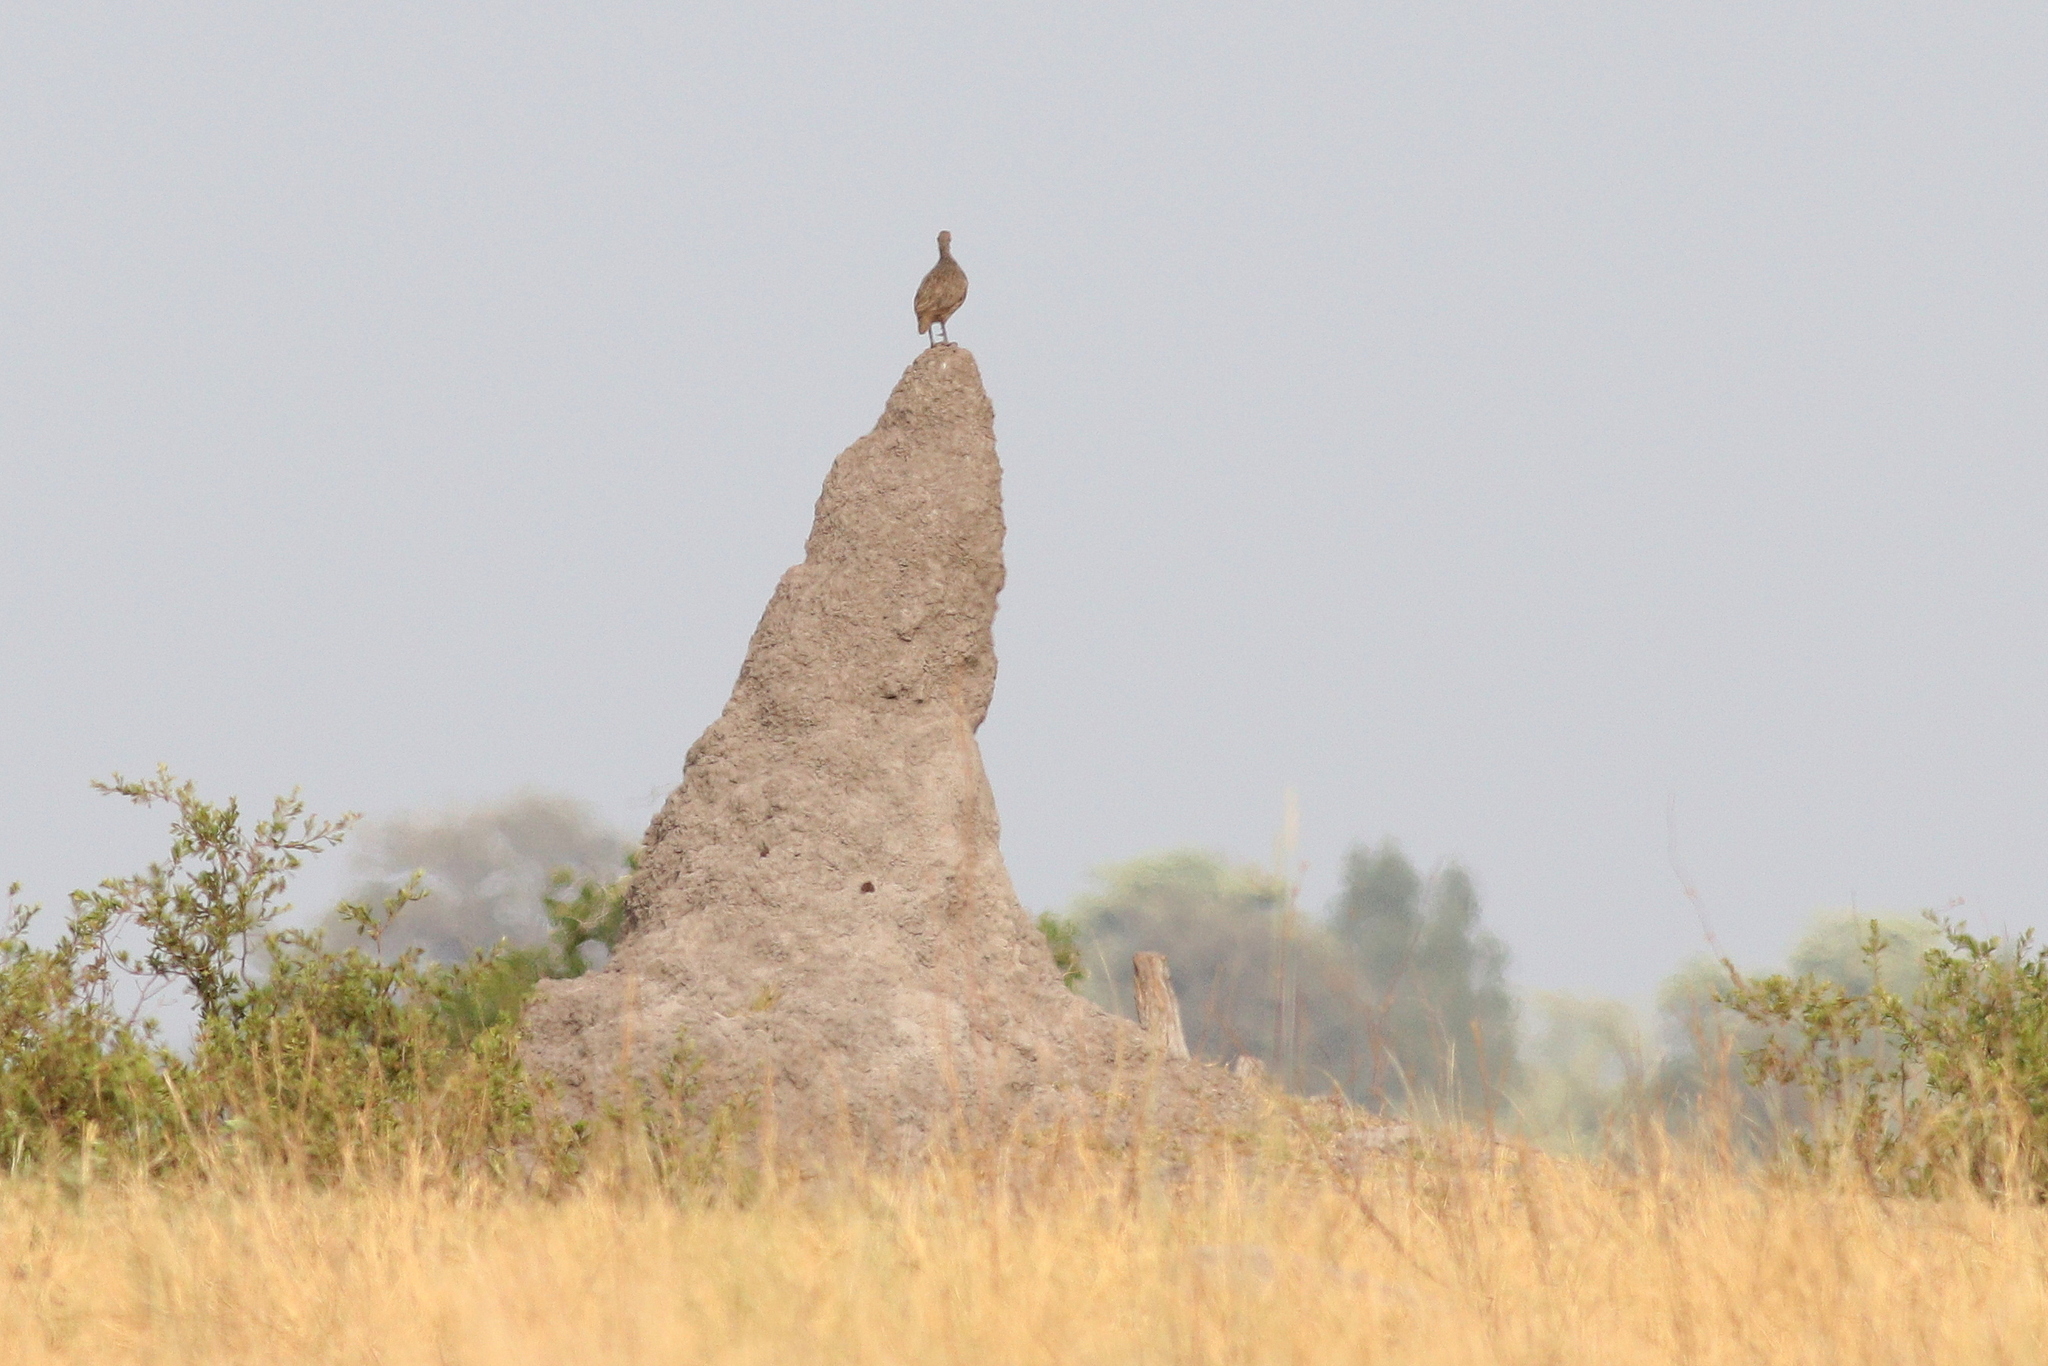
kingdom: Animalia
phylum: Chordata
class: Aves
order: Galliformes
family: Phasianidae
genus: Pternistis
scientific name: Pternistis swainsonii
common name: Swainson's spurfowl
